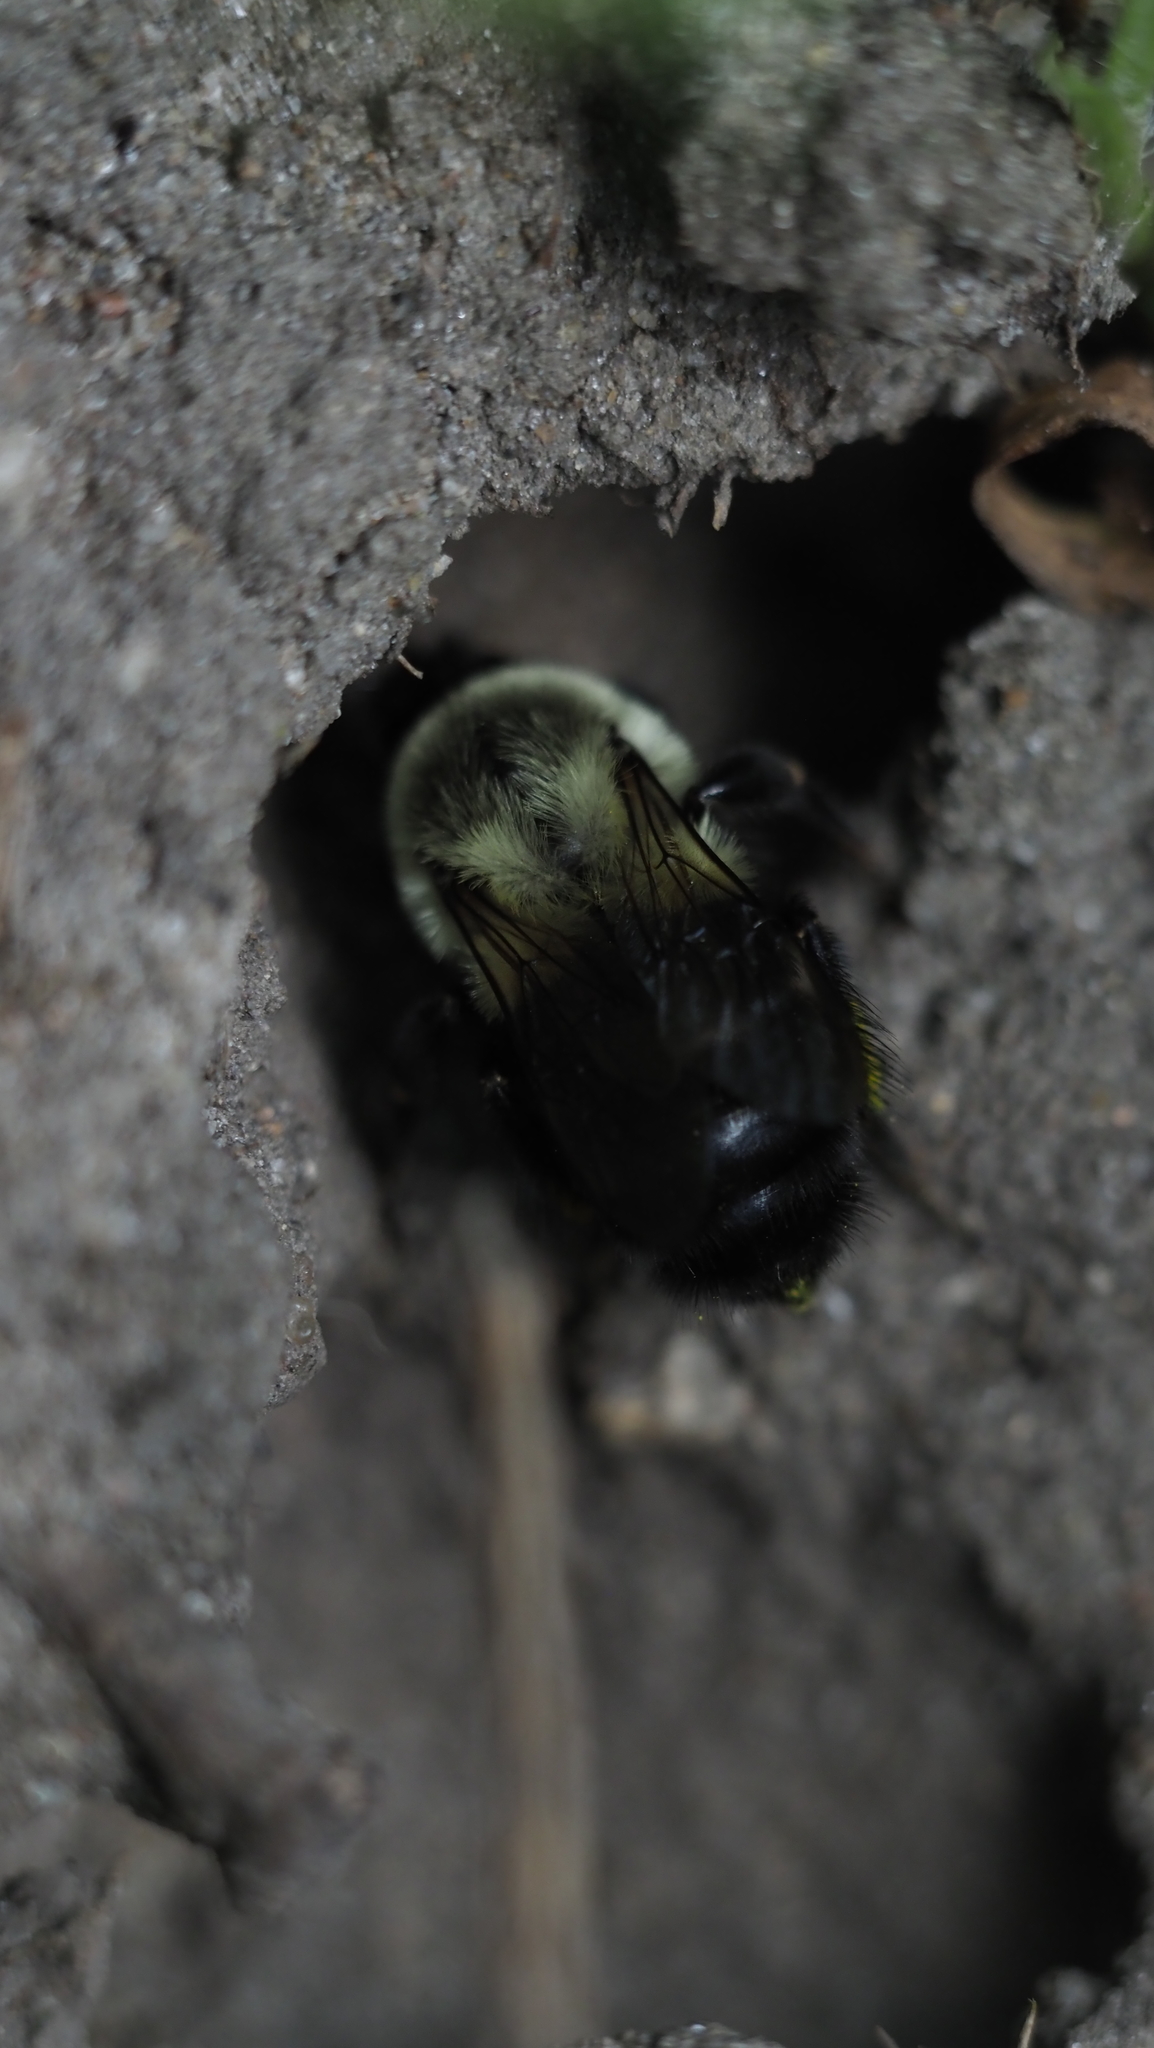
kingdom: Animalia
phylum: Arthropoda
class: Insecta
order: Hymenoptera
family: Apidae
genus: Bombus
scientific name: Bombus impatiens
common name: Common eastern bumble bee
